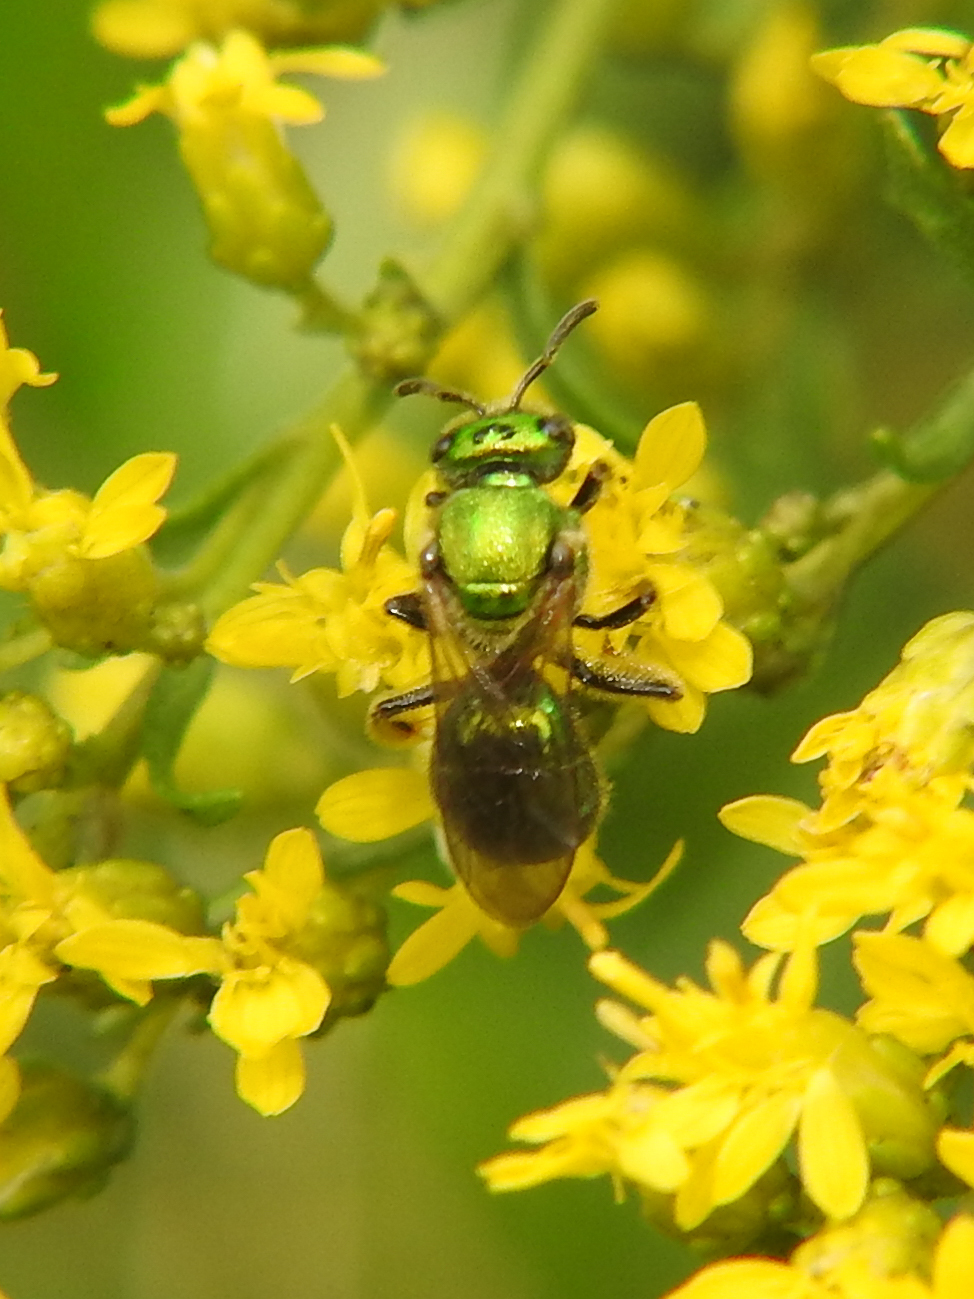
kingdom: Animalia
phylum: Arthropoda
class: Insecta
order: Hymenoptera
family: Halictidae
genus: Augochlorella
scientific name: Augochlorella aurata
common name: Golden sweat bee
